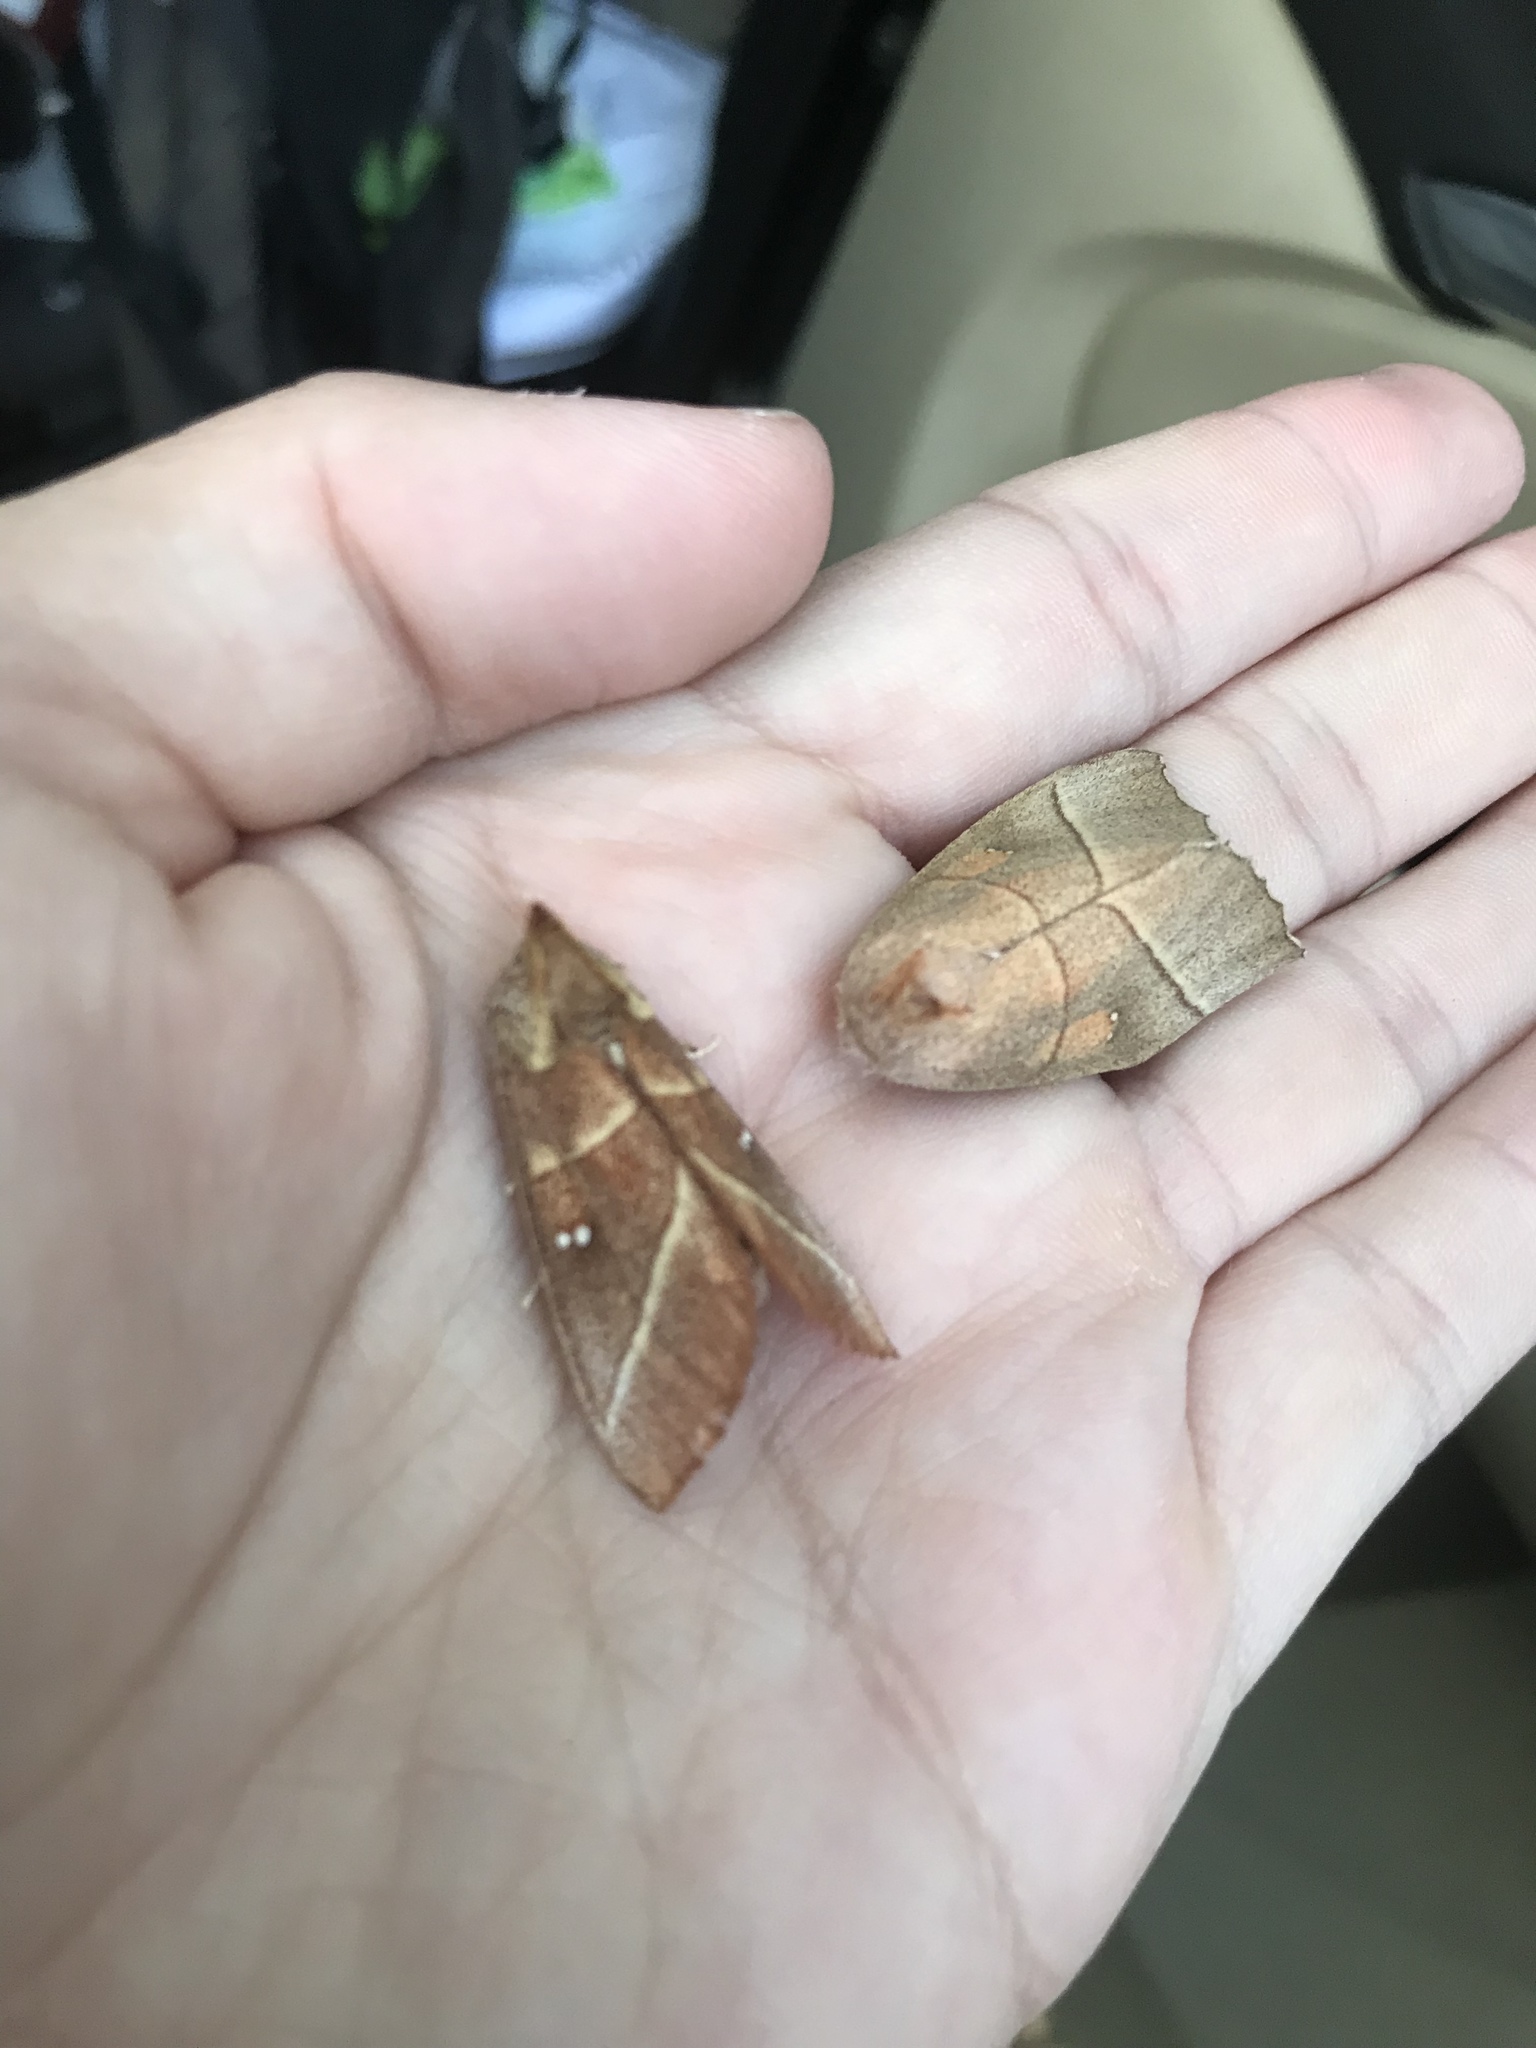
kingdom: Animalia
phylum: Arthropoda
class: Insecta
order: Lepidoptera
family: Notodontidae
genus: Nadata
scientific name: Nadata gibbosa
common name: White-dotted prominent
